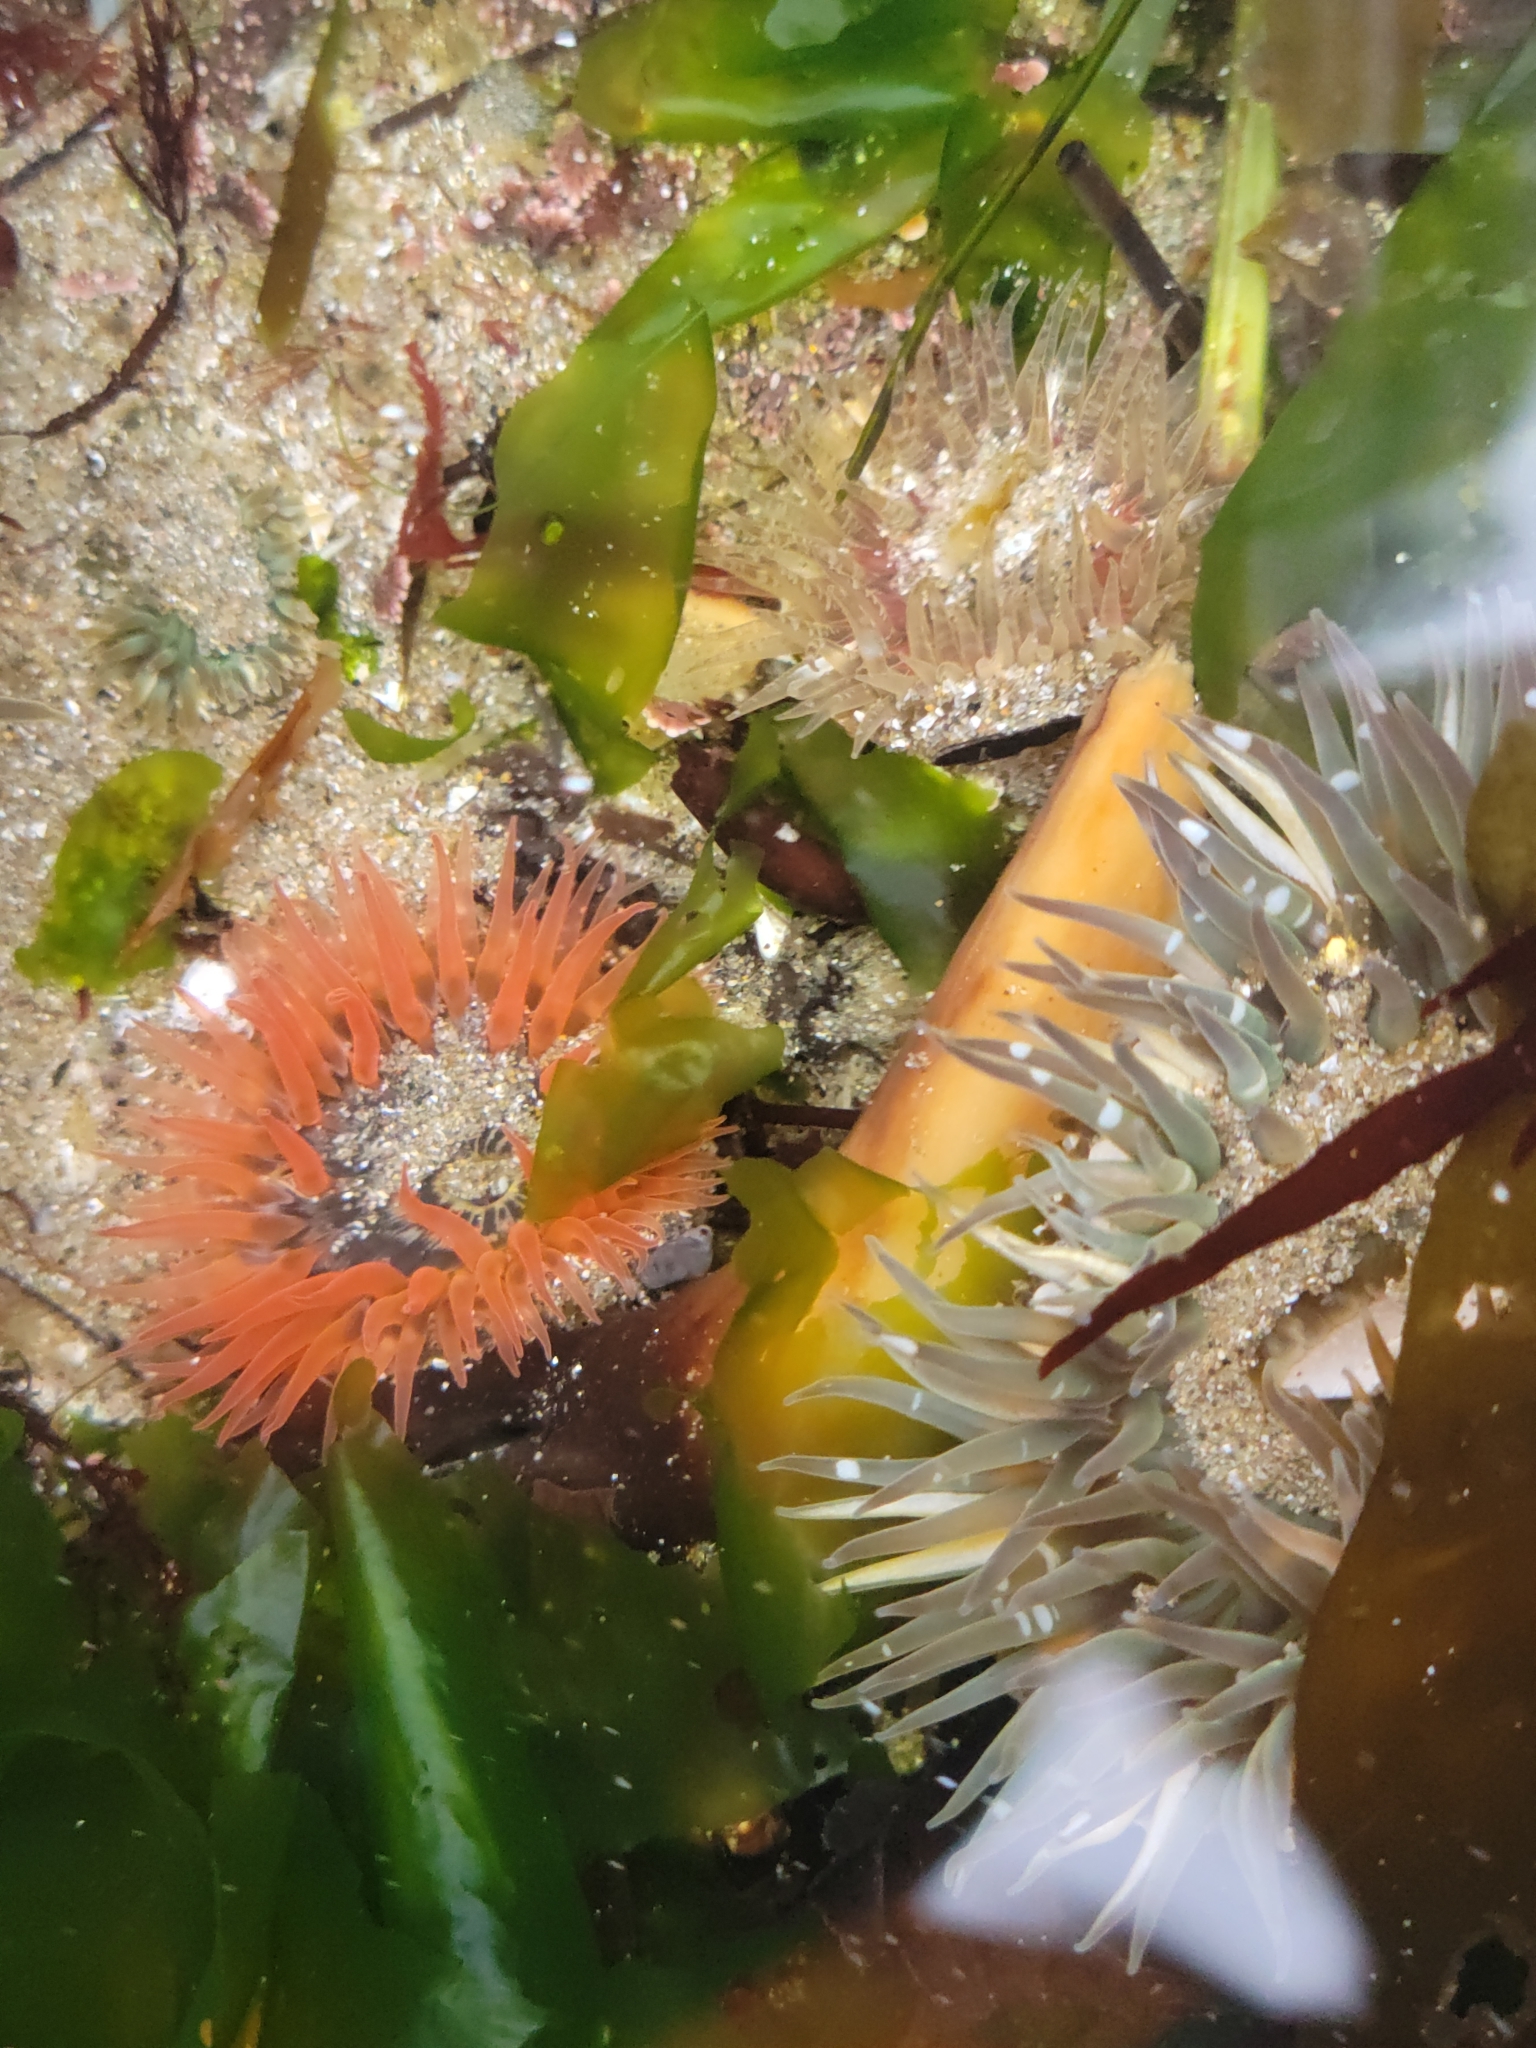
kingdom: Animalia
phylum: Cnidaria
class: Anthozoa
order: Actiniaria
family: Actiniidae
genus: Anthopleura
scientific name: Anthopleura artemisia
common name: Buried sea anemone
